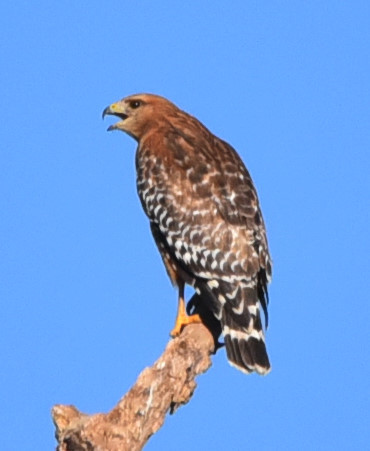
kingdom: Animalia
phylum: Chordata
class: Aves
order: Accipitriformes
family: Accipitridae
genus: Buteo
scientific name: Buteo lineatus
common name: Red-shouldered hawk
